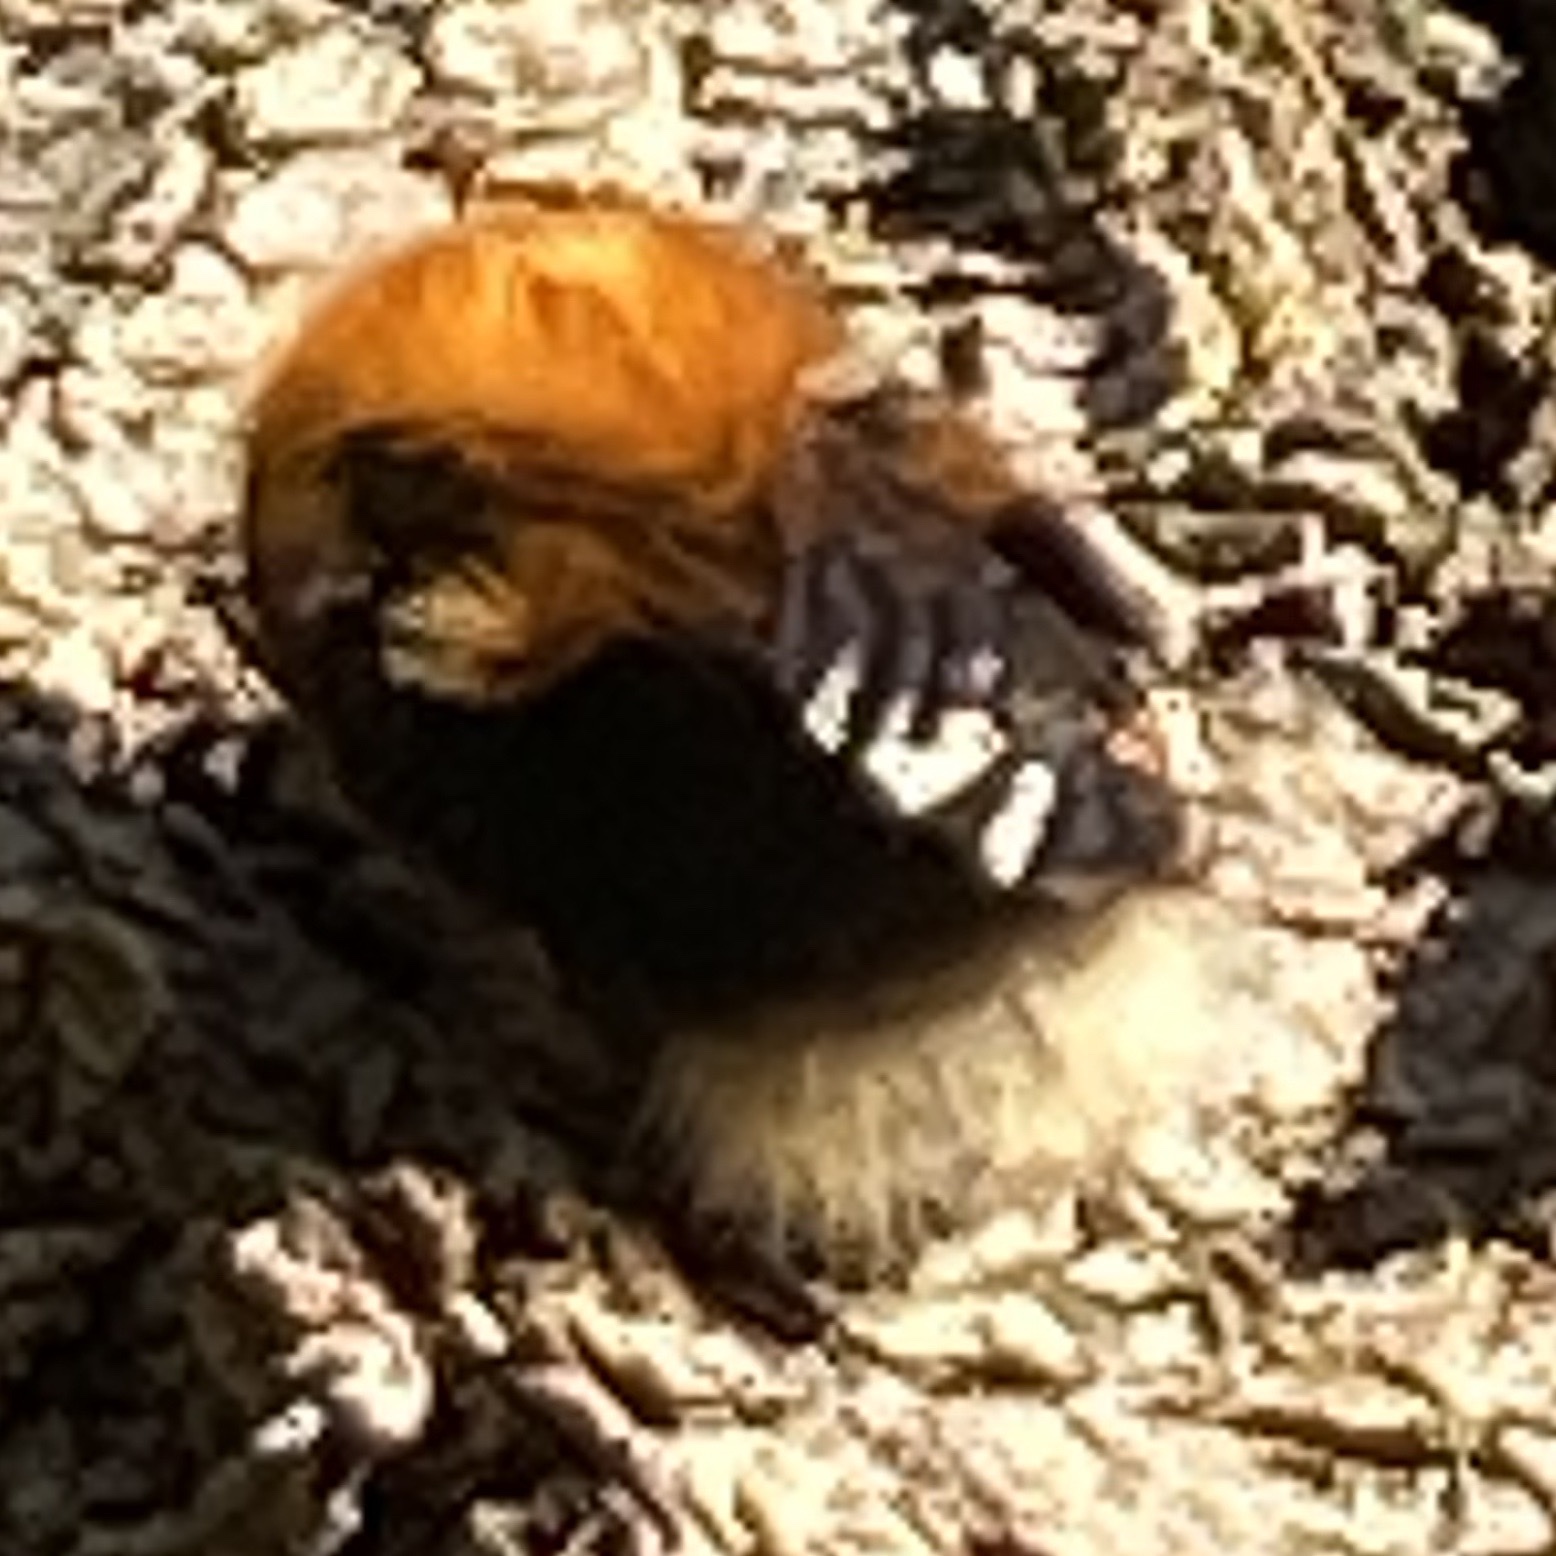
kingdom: Animalia
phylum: Arthropoda
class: Insecta
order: Hymenoptera
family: Apidae
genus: Bombus
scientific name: Bombus hypnorum
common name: New garden bumblebee
